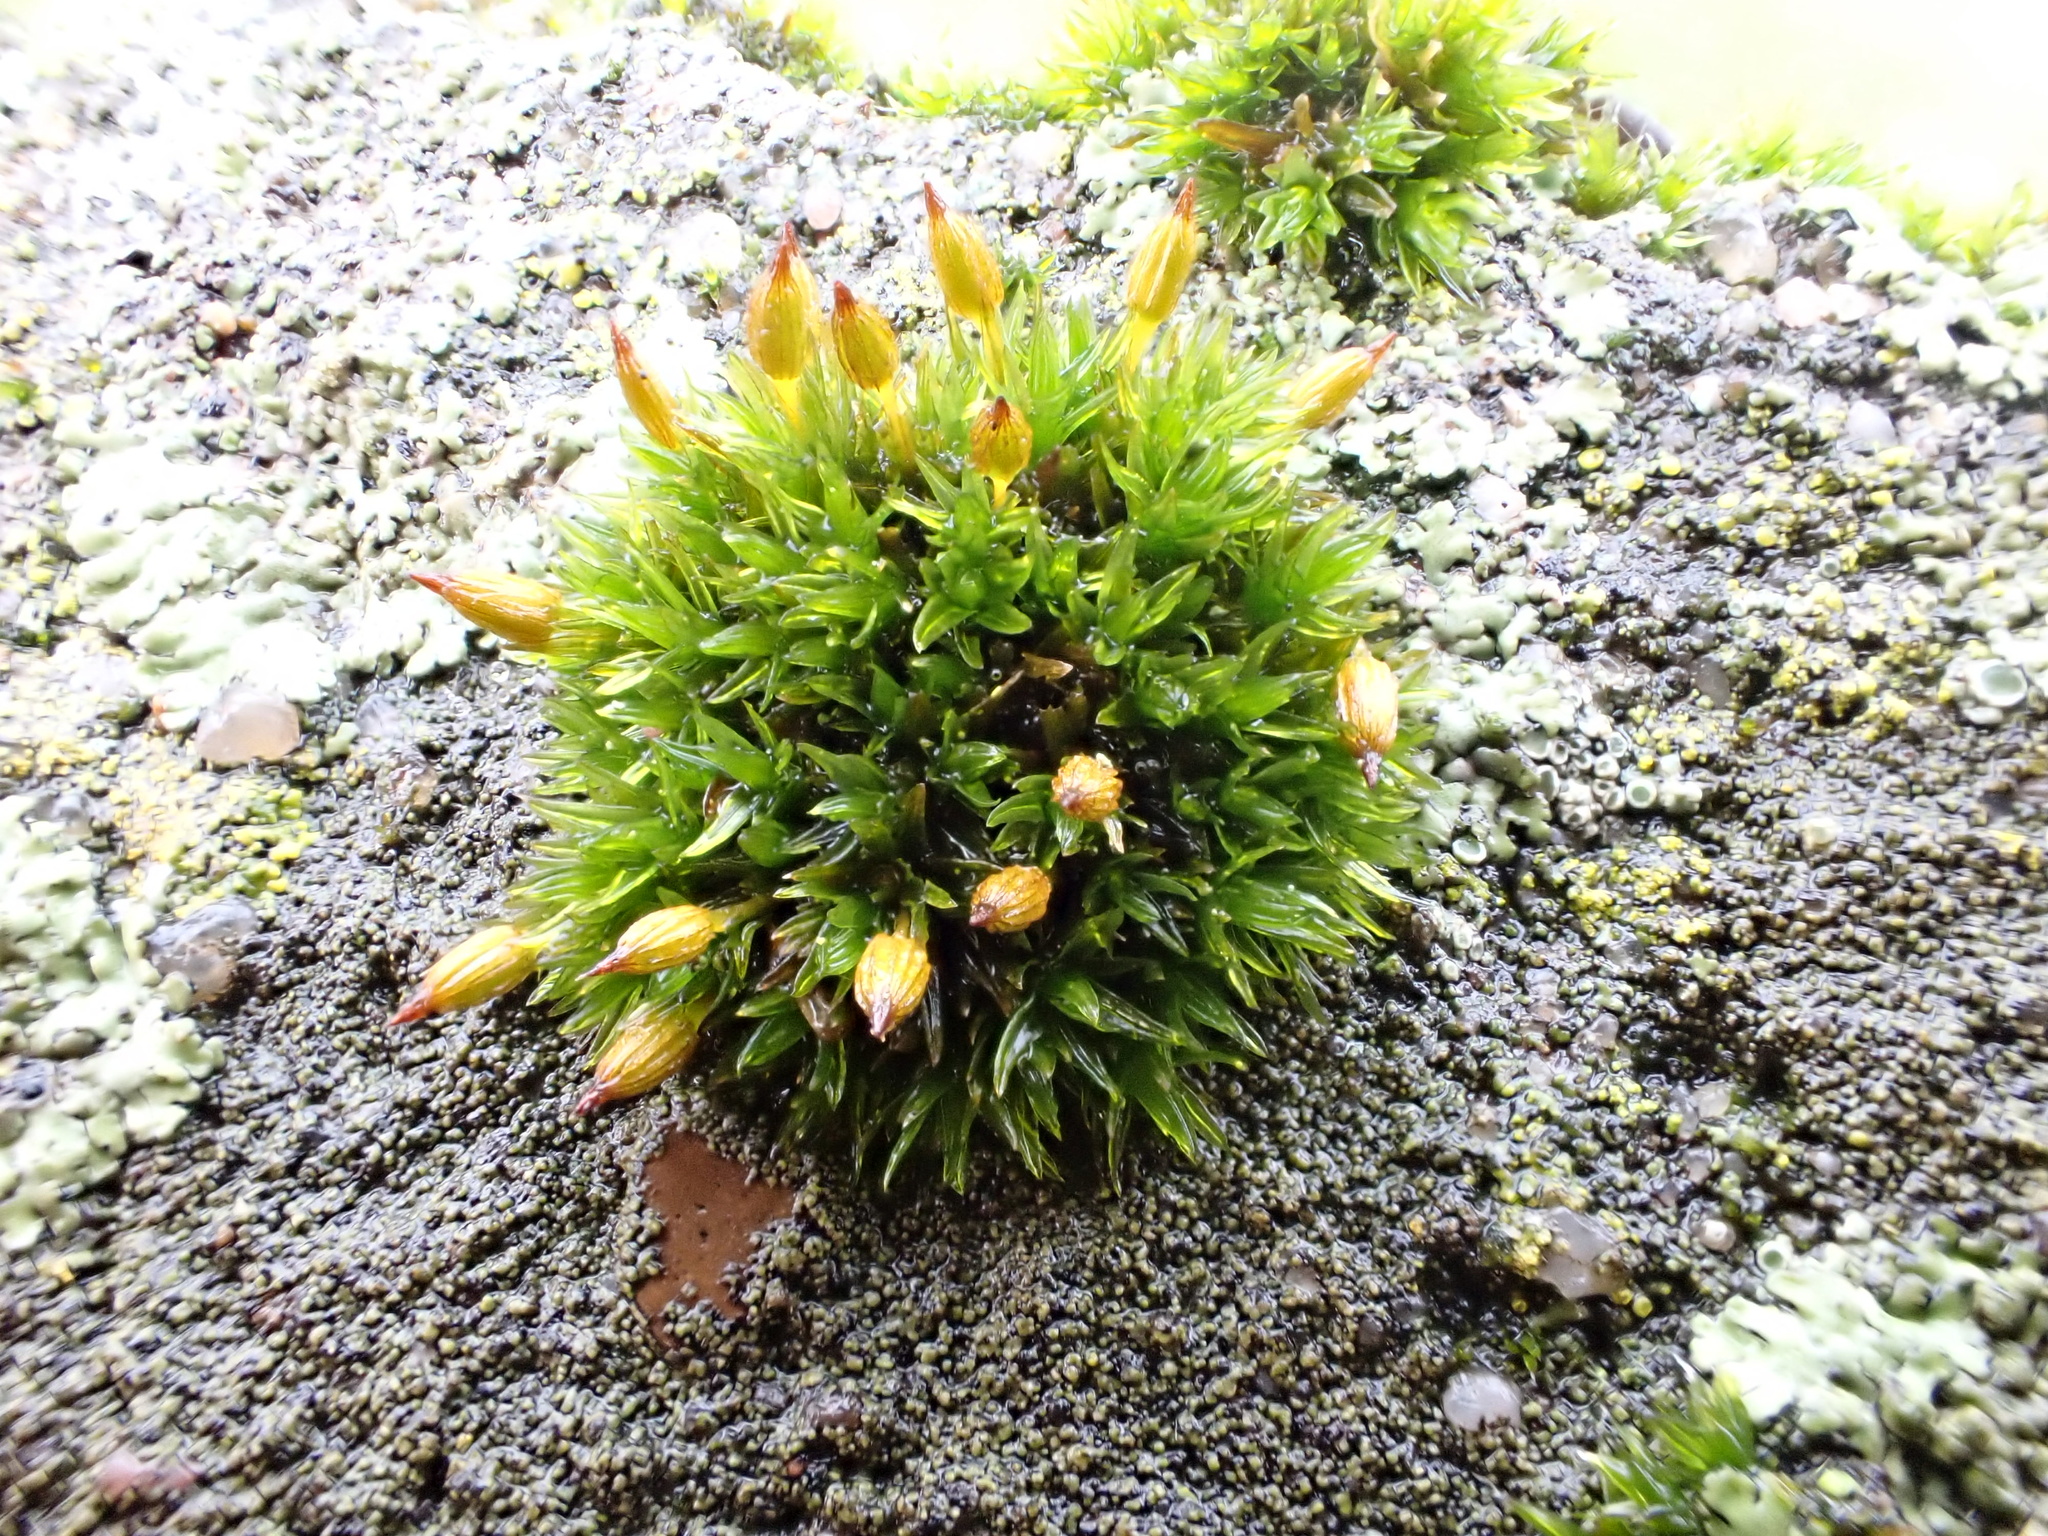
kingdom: Plantae
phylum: Bryophyta
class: Bryopsida
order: Orthotrichales
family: Orthotrichaceae
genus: Orthotrichum
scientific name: Orthotrichum anomalum
